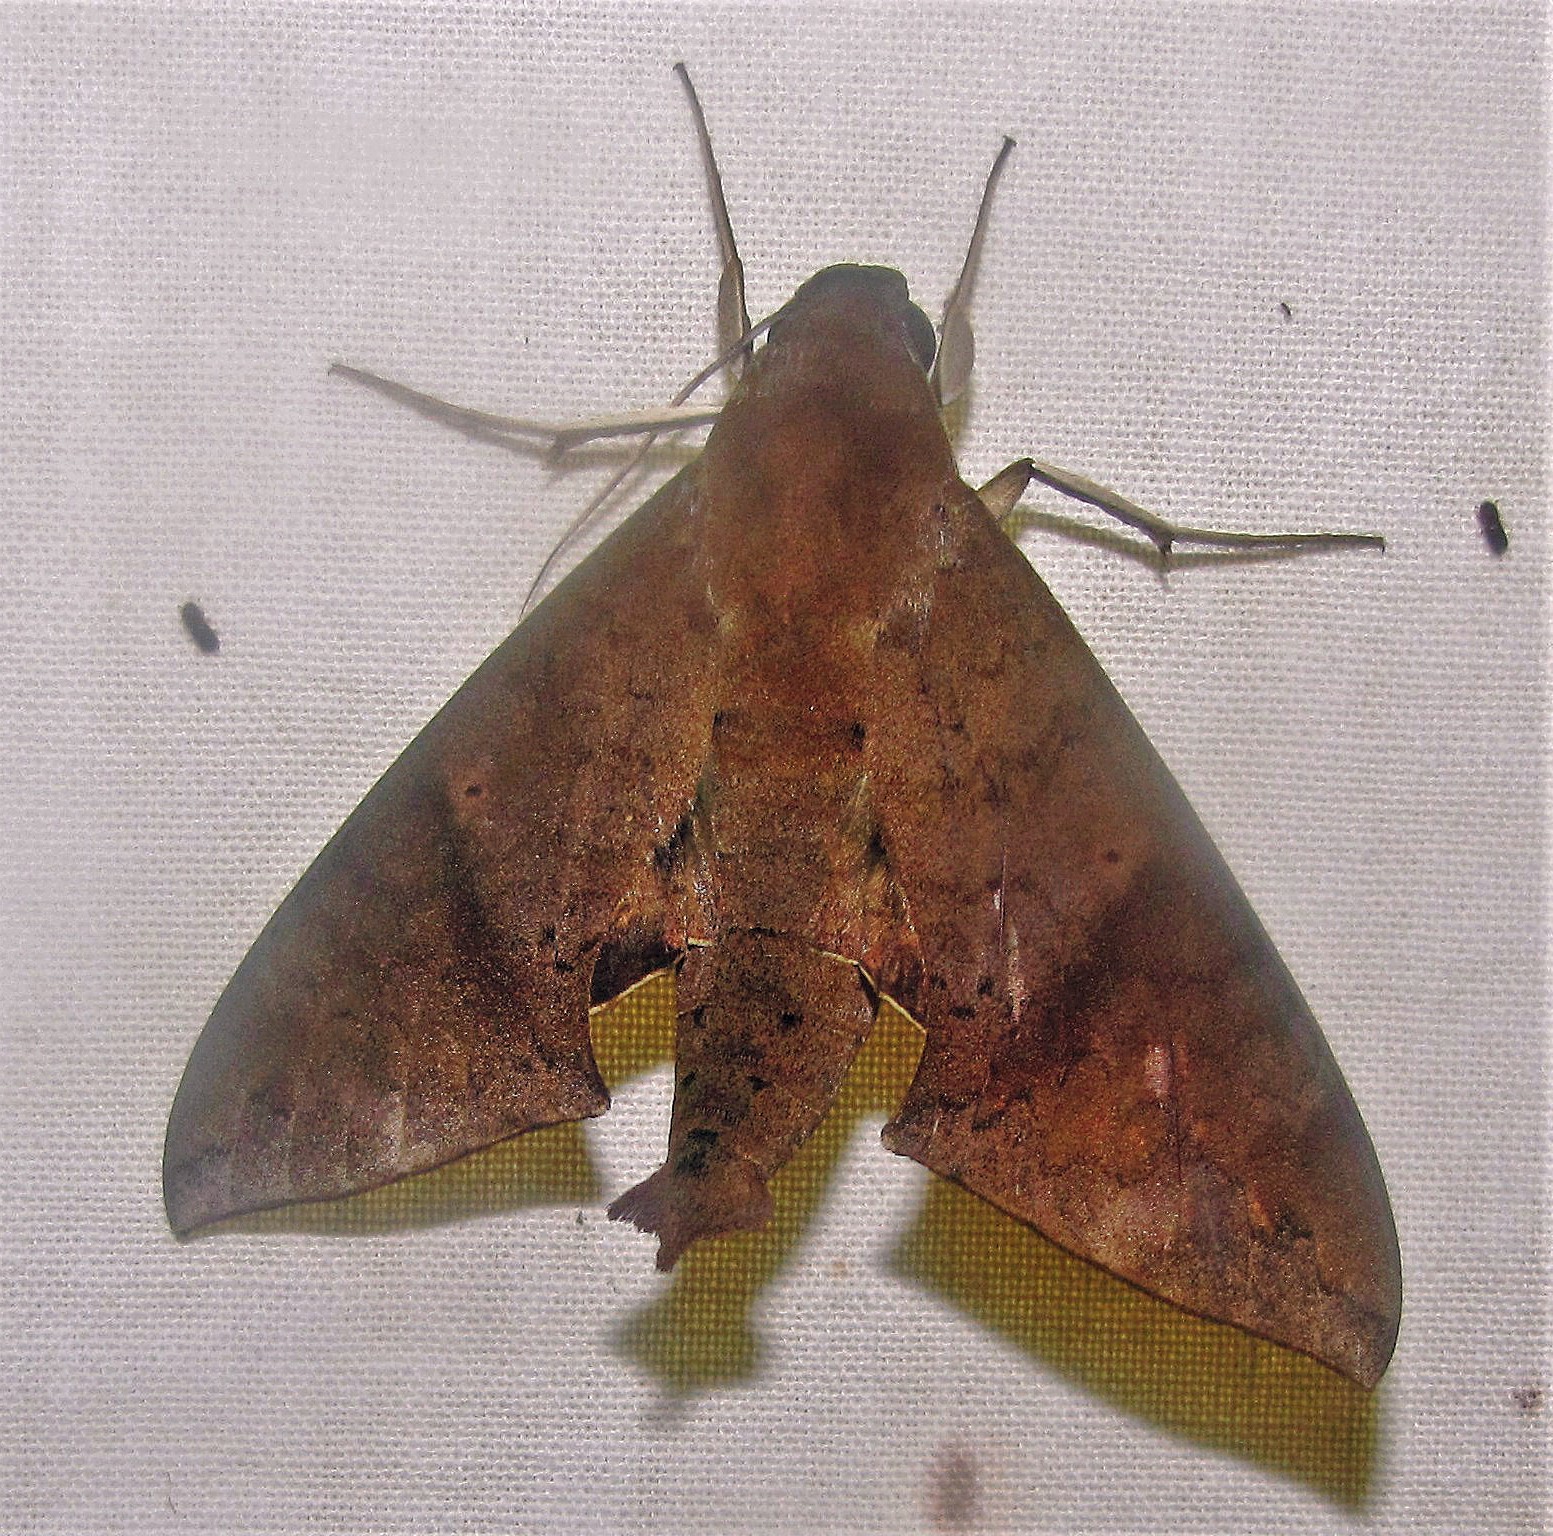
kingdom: Animalia
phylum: Arthropoda
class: Insecta
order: Lepidoptera
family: Sphingidae
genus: Pachylioides
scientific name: Pachylioides resumens
